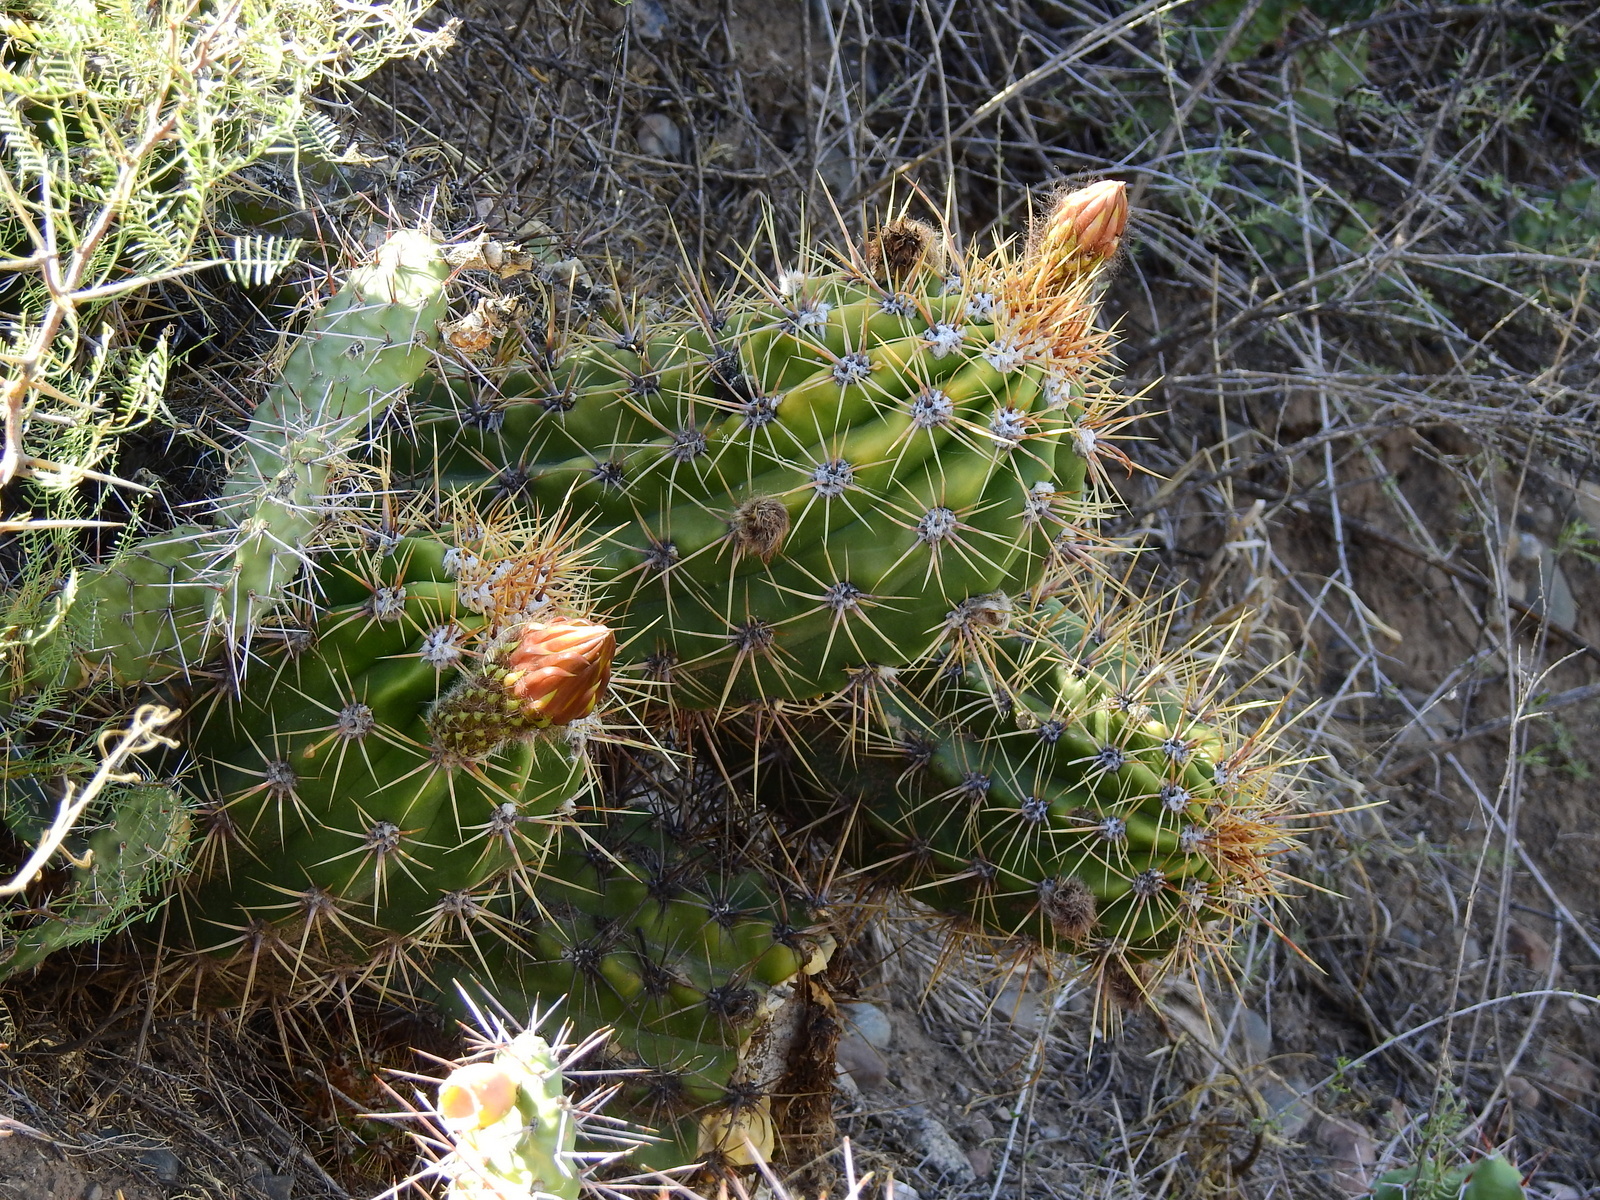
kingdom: Plantae
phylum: Tracheophyta
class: Magnoliopsida
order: Caryophyllales
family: Cactaceae
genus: Soehrensia
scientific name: Soehrensia candicans
